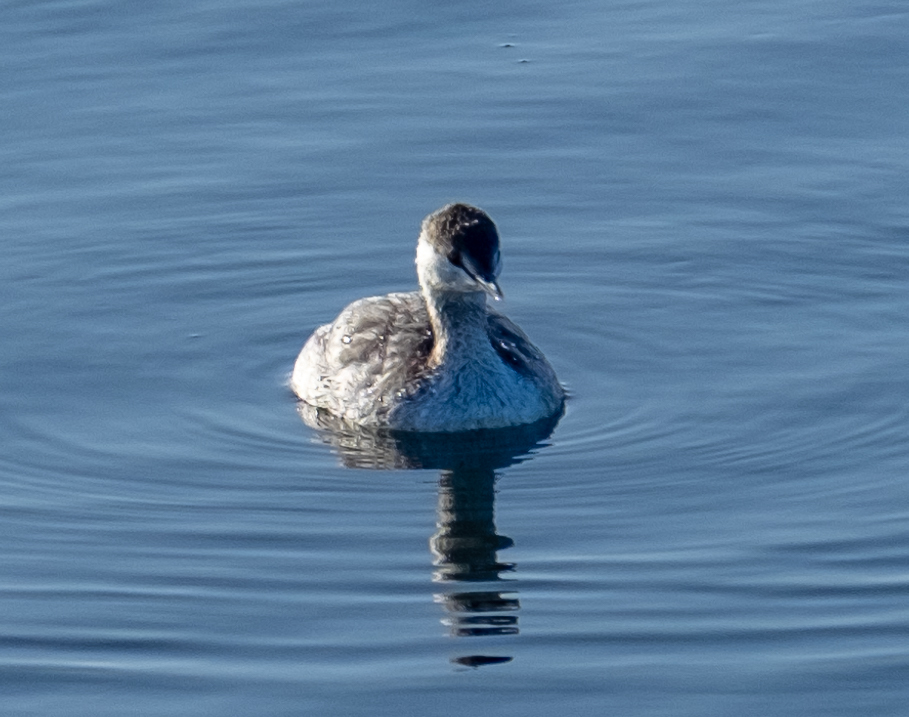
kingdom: Animalia
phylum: Chordata
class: Aves
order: Podicipediformes
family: Podicipedidae
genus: Podiceps
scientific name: Podiceps auritus
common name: Horned grebe
